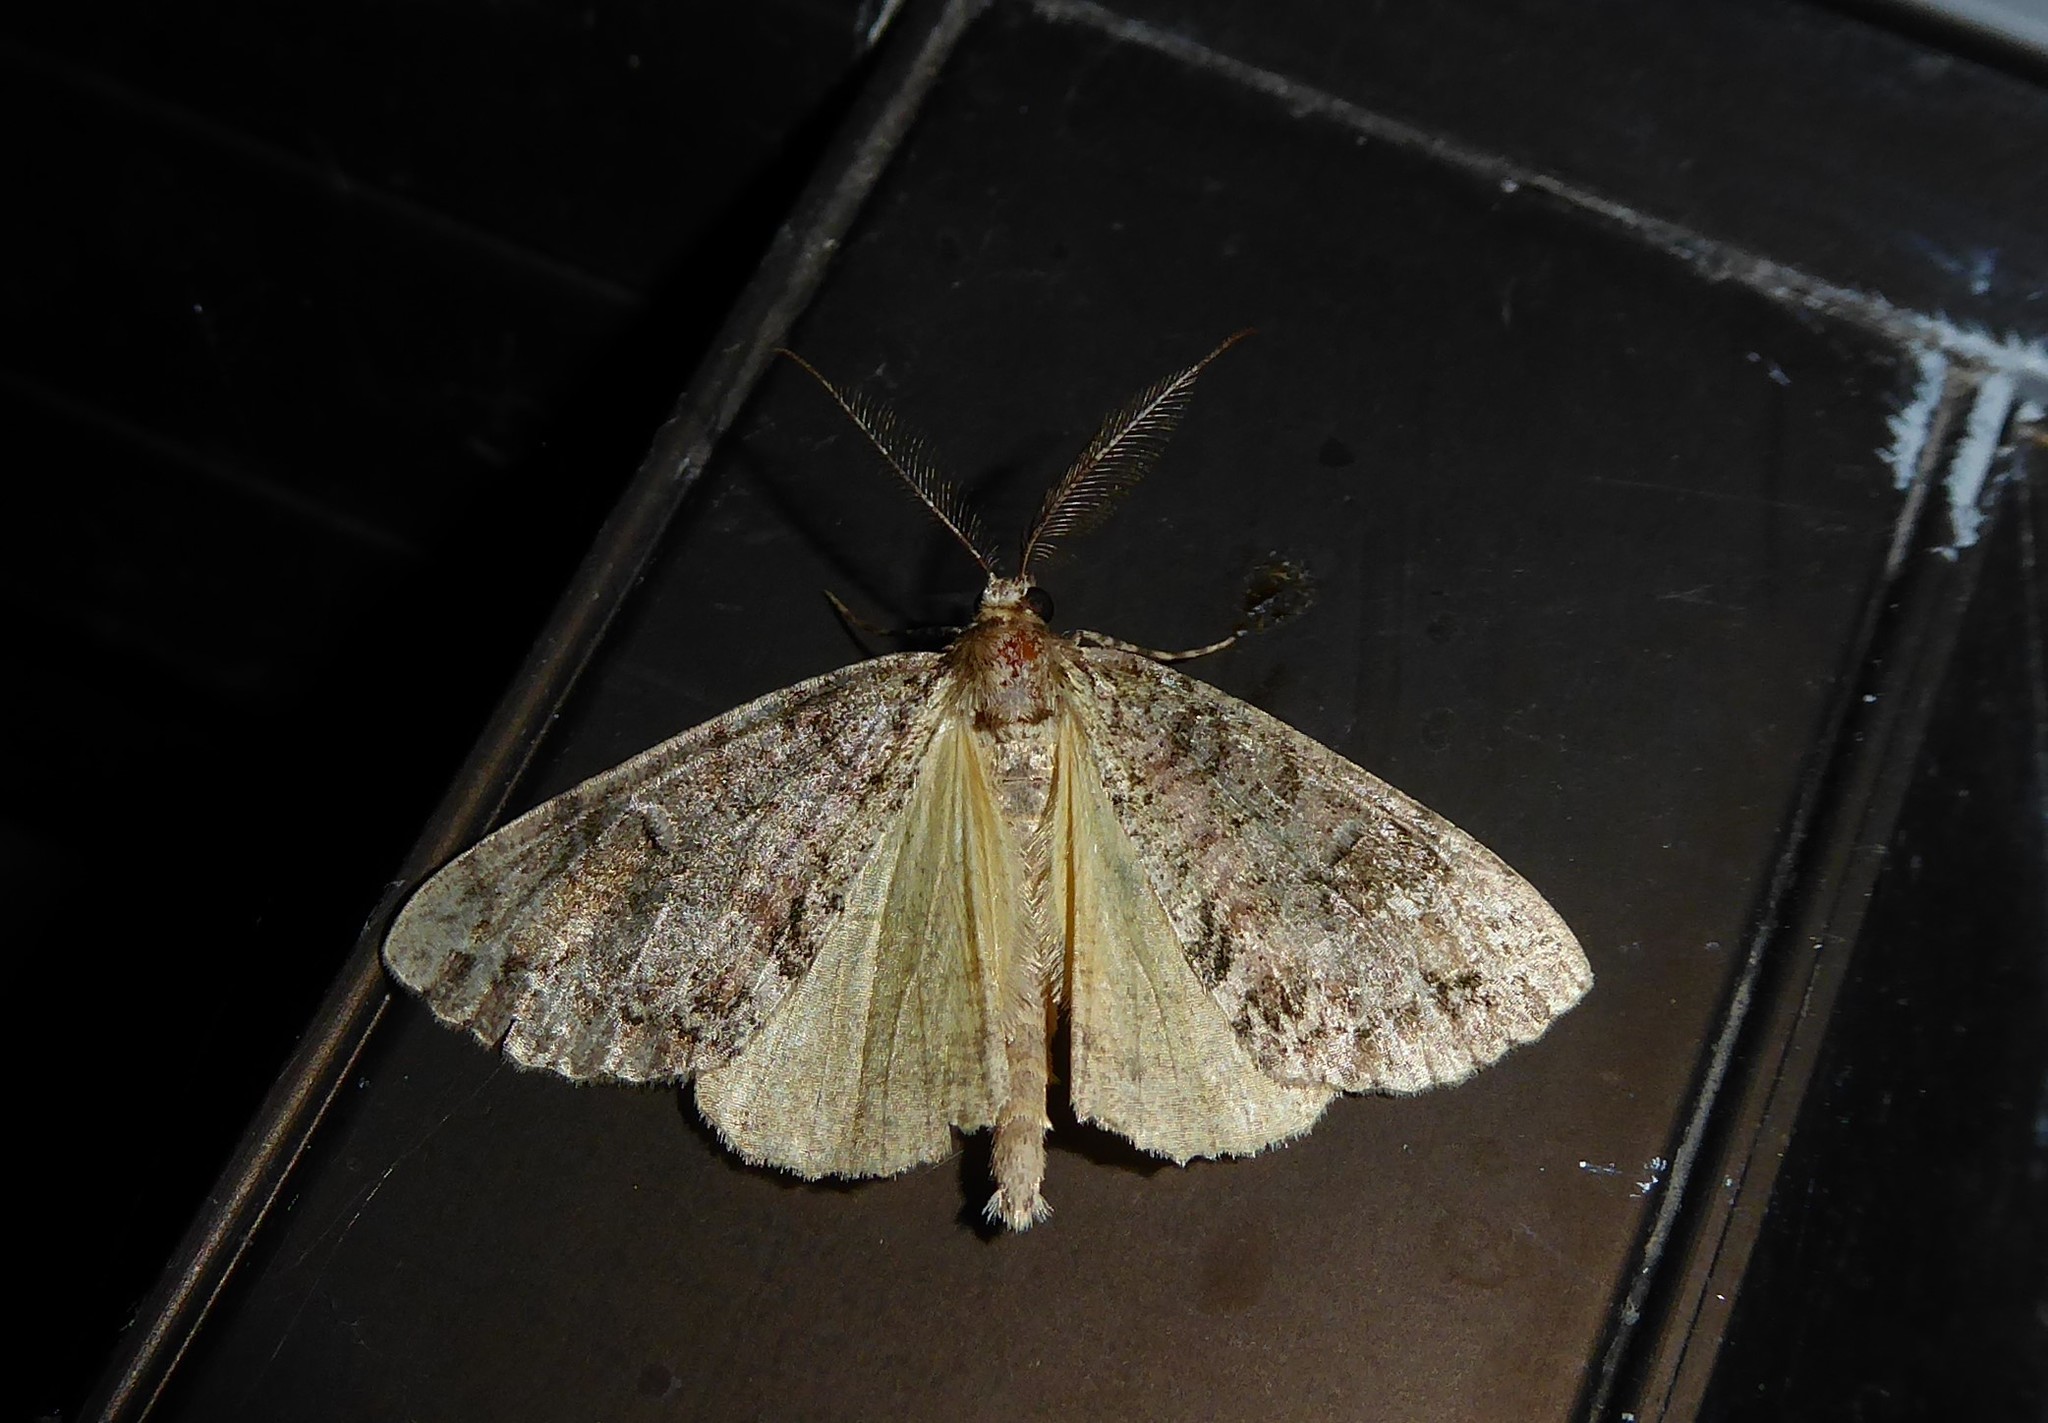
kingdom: Animalia
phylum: Arthropoda
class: Insecta
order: Lepidoptera
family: Geometridae
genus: Pseudocoremia
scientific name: Pseudocoremia suavis
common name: Common forest looper
